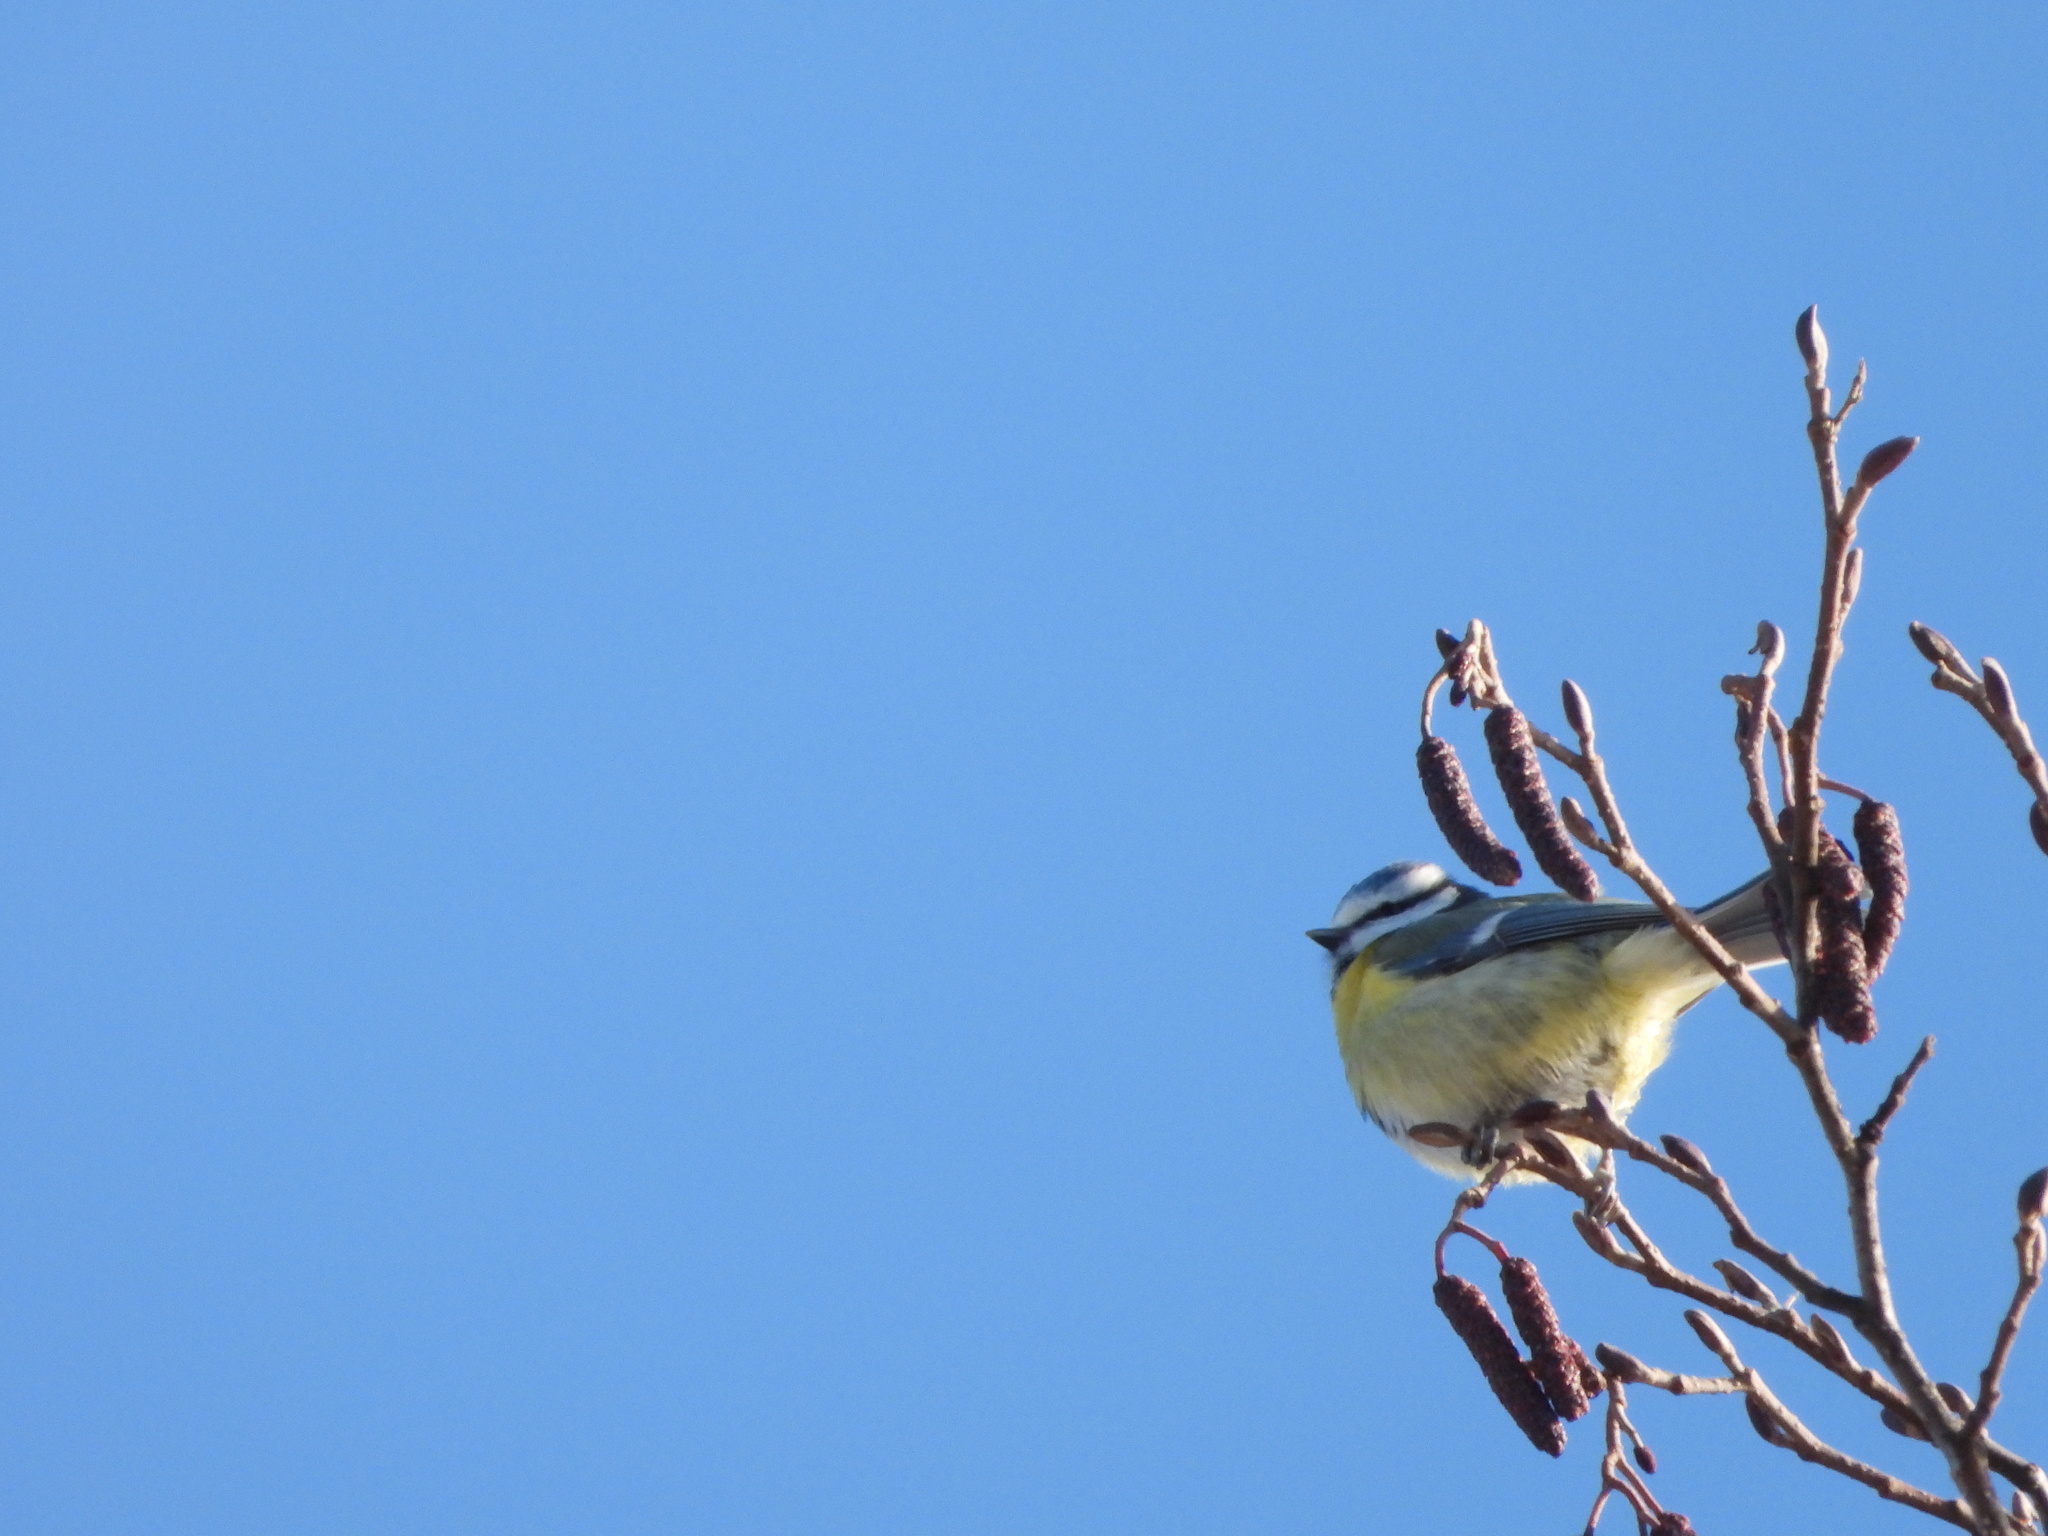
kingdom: Animalia
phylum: Chordata
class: Aves
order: Passeriformes
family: Paridae
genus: Cyanistes
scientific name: Cyanistes caeruleus
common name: Eurasian blue tit
